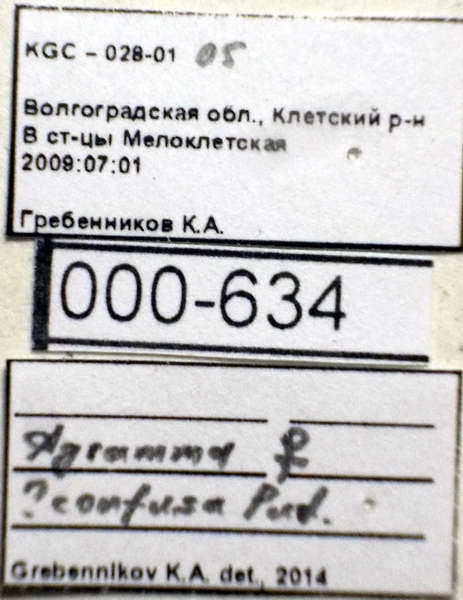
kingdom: Animalia
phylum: Arthropoda
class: Insecta
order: Hemiptera
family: Tingidae
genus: Agramma
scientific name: Agramma confusum
